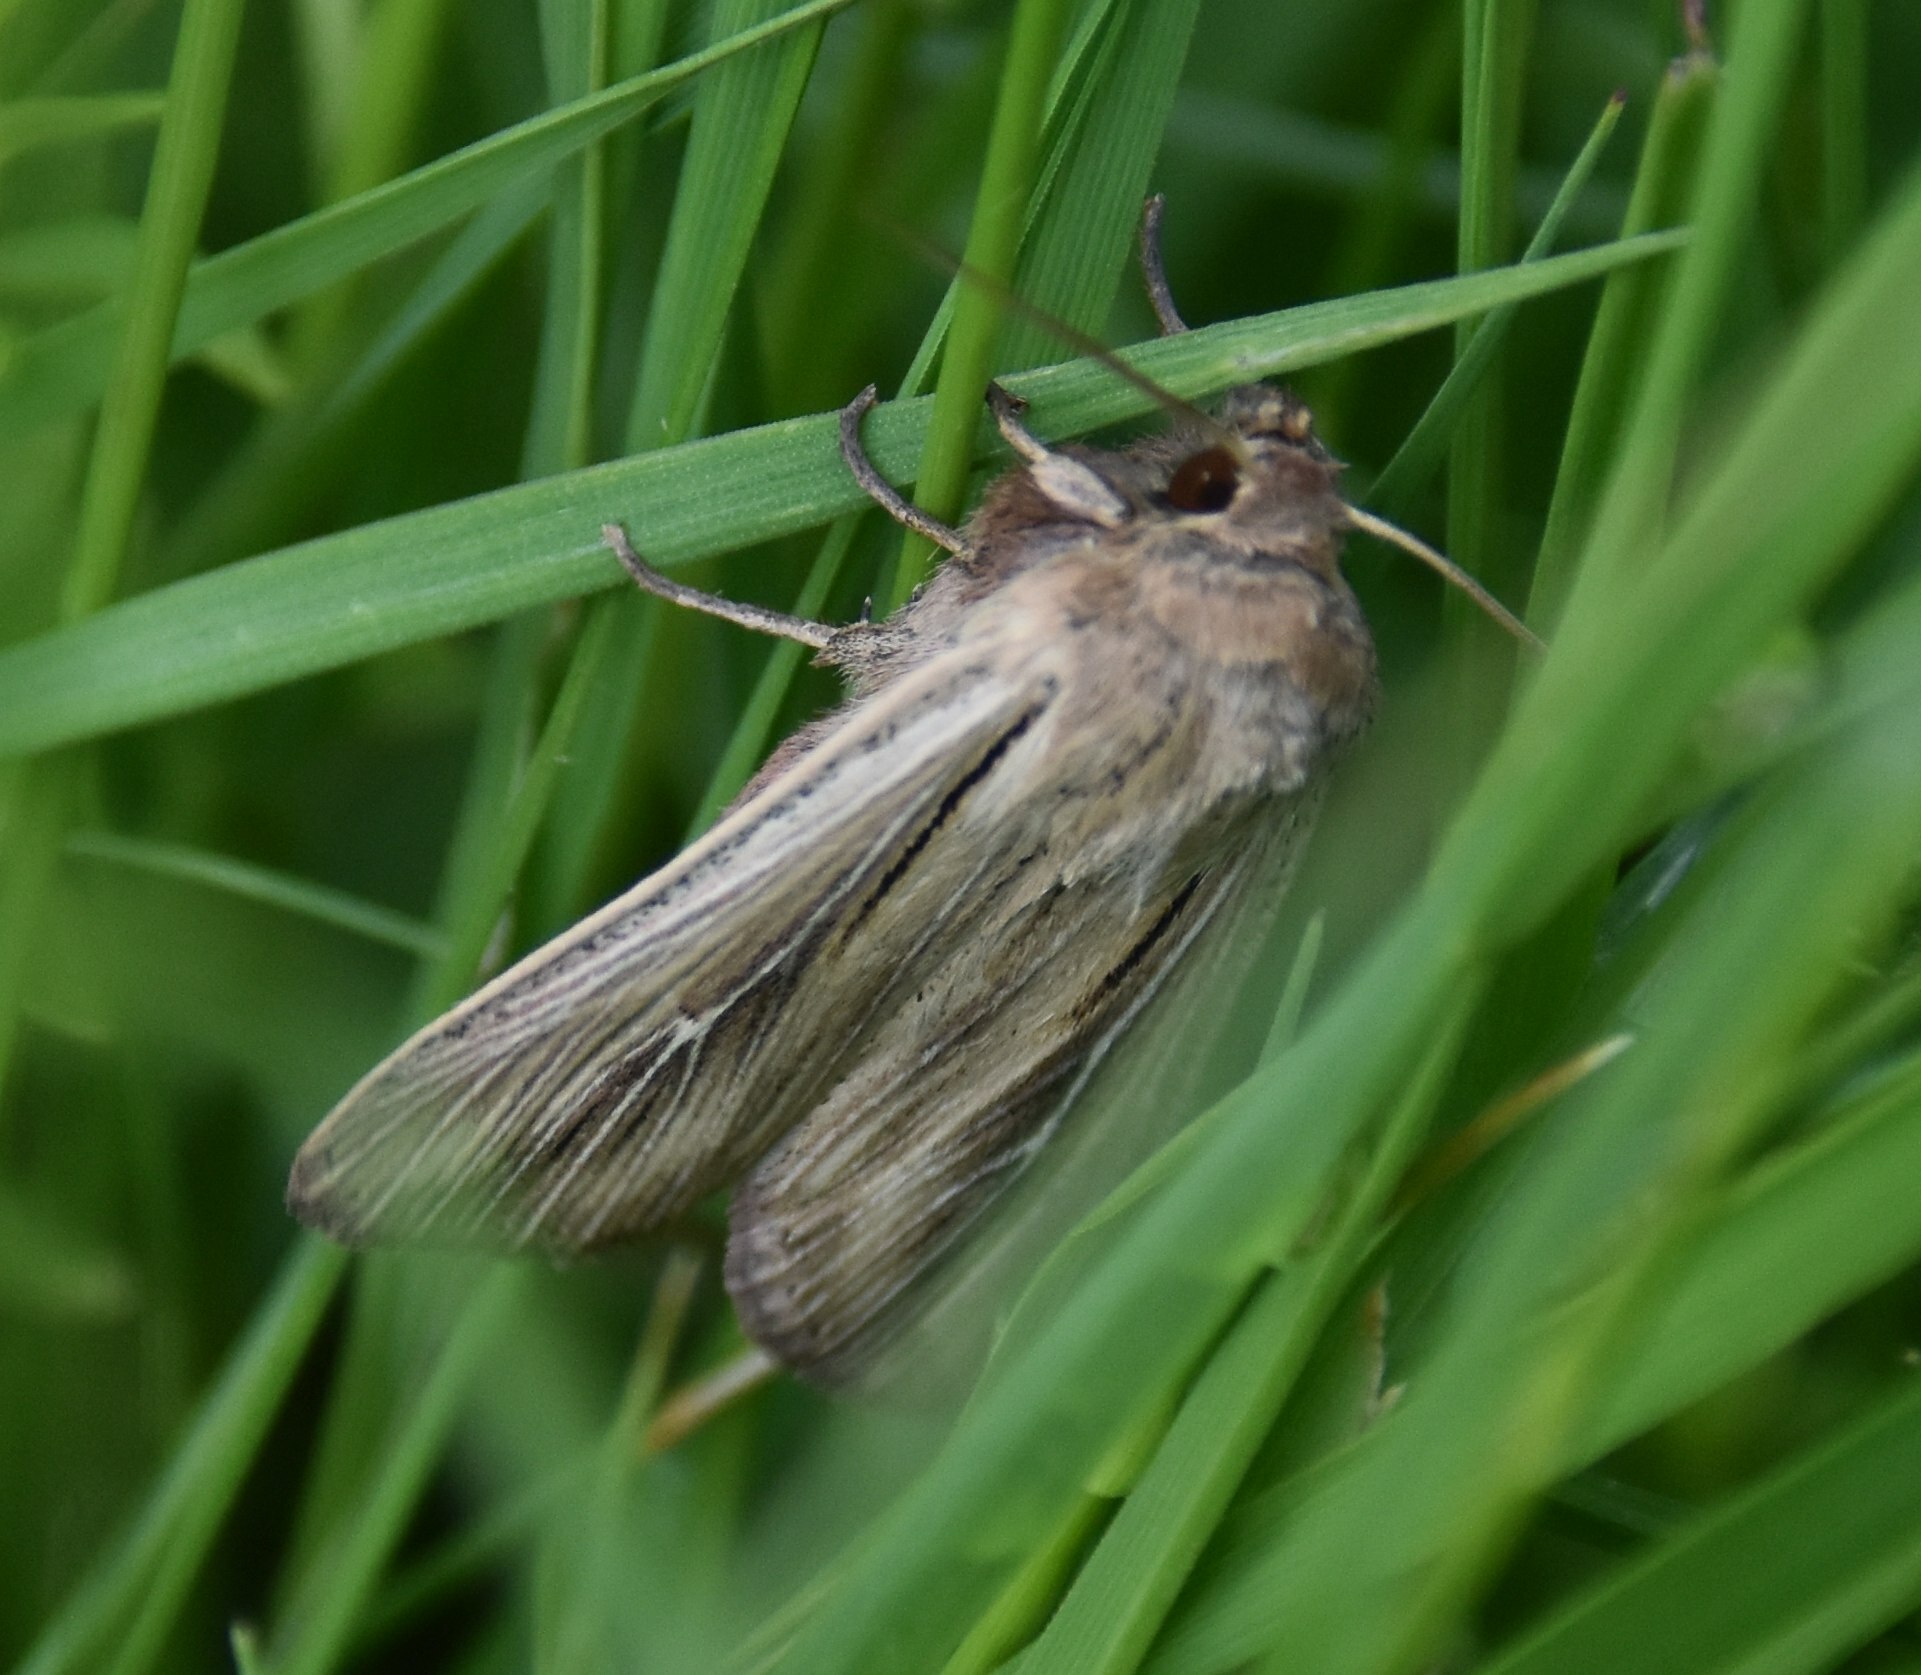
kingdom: Animalia
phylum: Arthropoda
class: Insecta
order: Lepidoptera
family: Noctuidae
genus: Leucania
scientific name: Leucania comma
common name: Shoulder-striped wainscot
